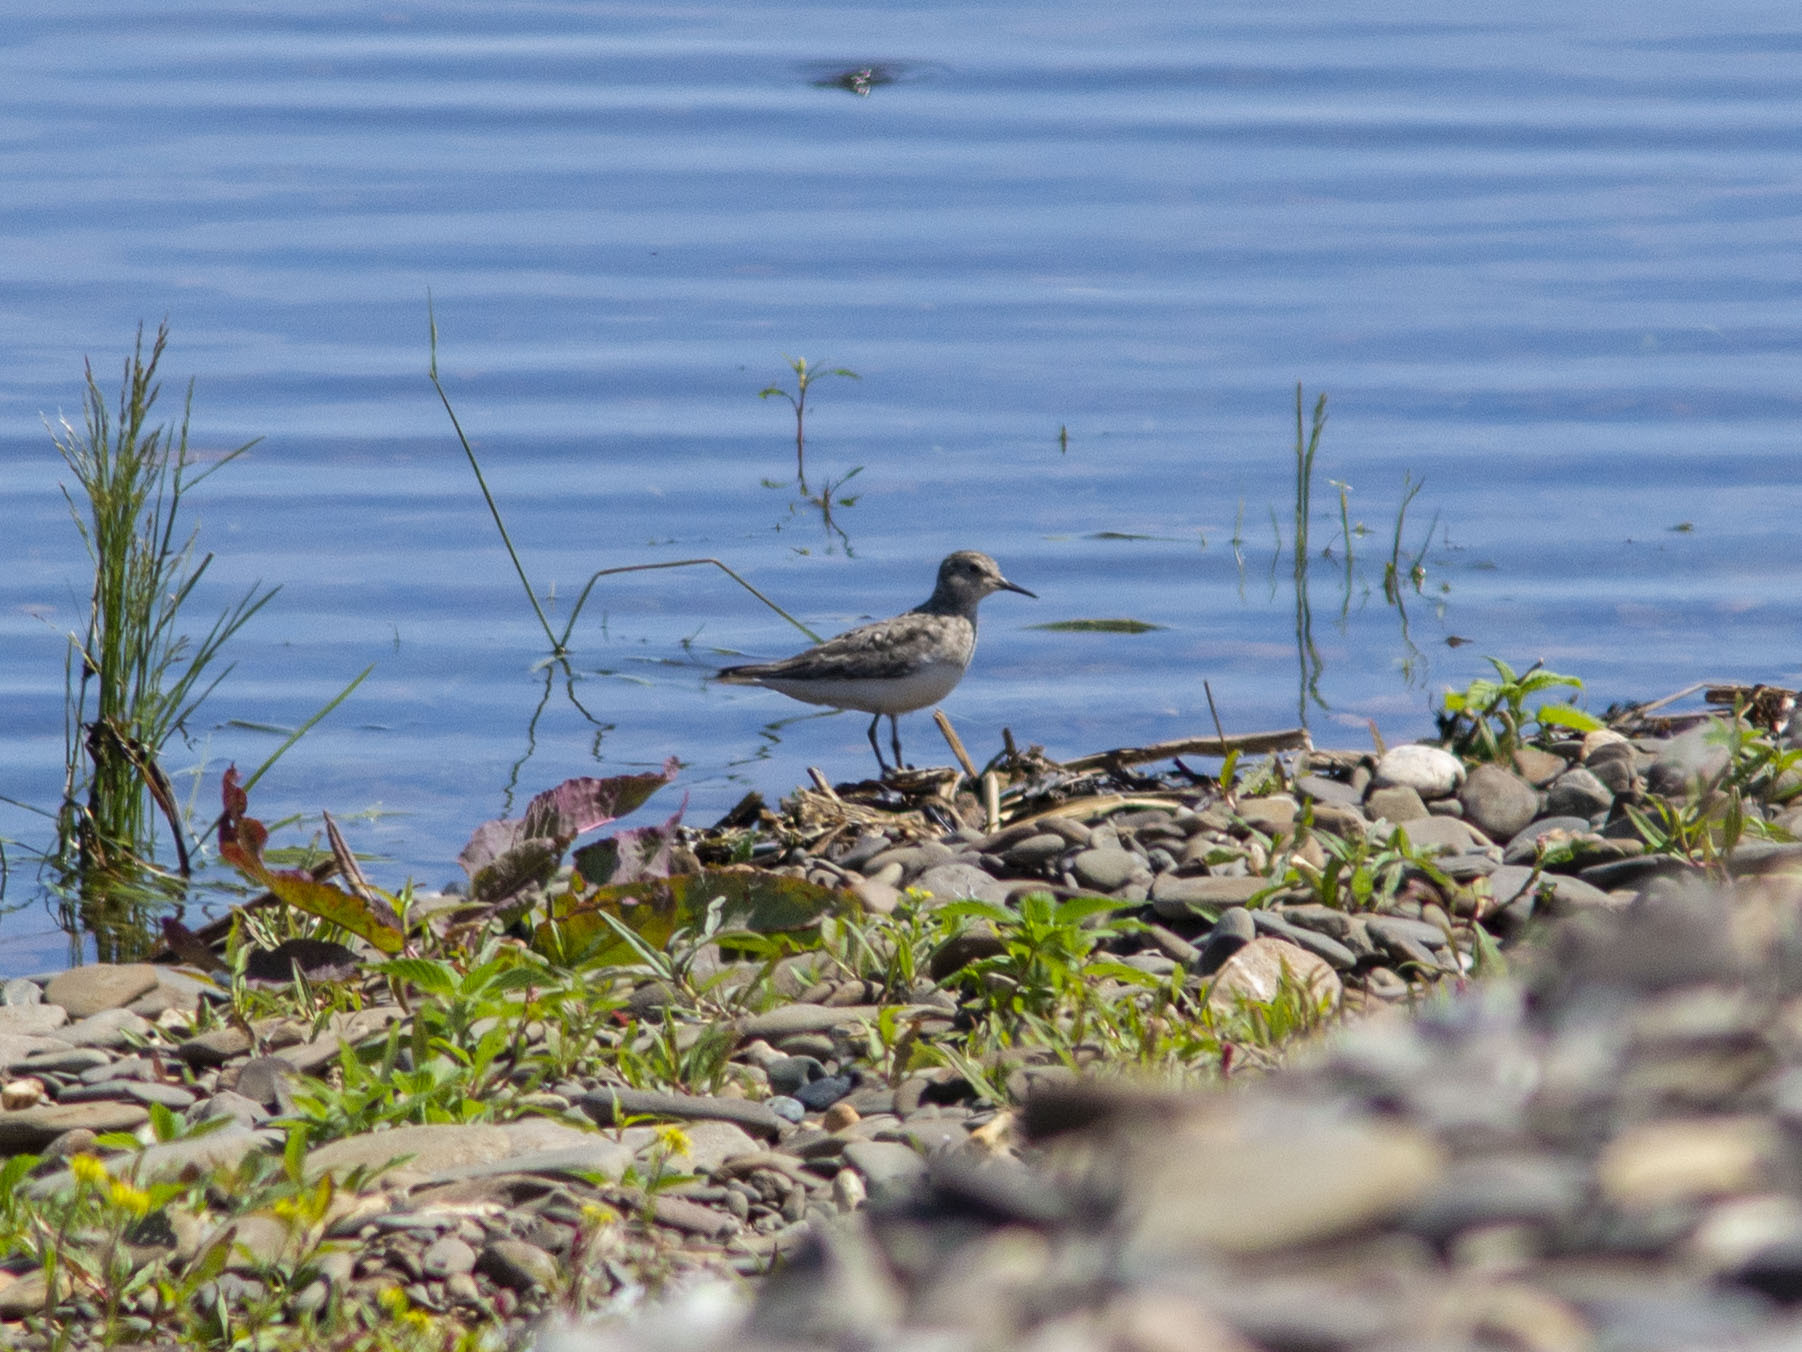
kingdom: Animalia
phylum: Chordata
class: Aves
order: Charadriiformes
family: Scolopacidae
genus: Calidris
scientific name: Calidris temminckii
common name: Temminck's stint
